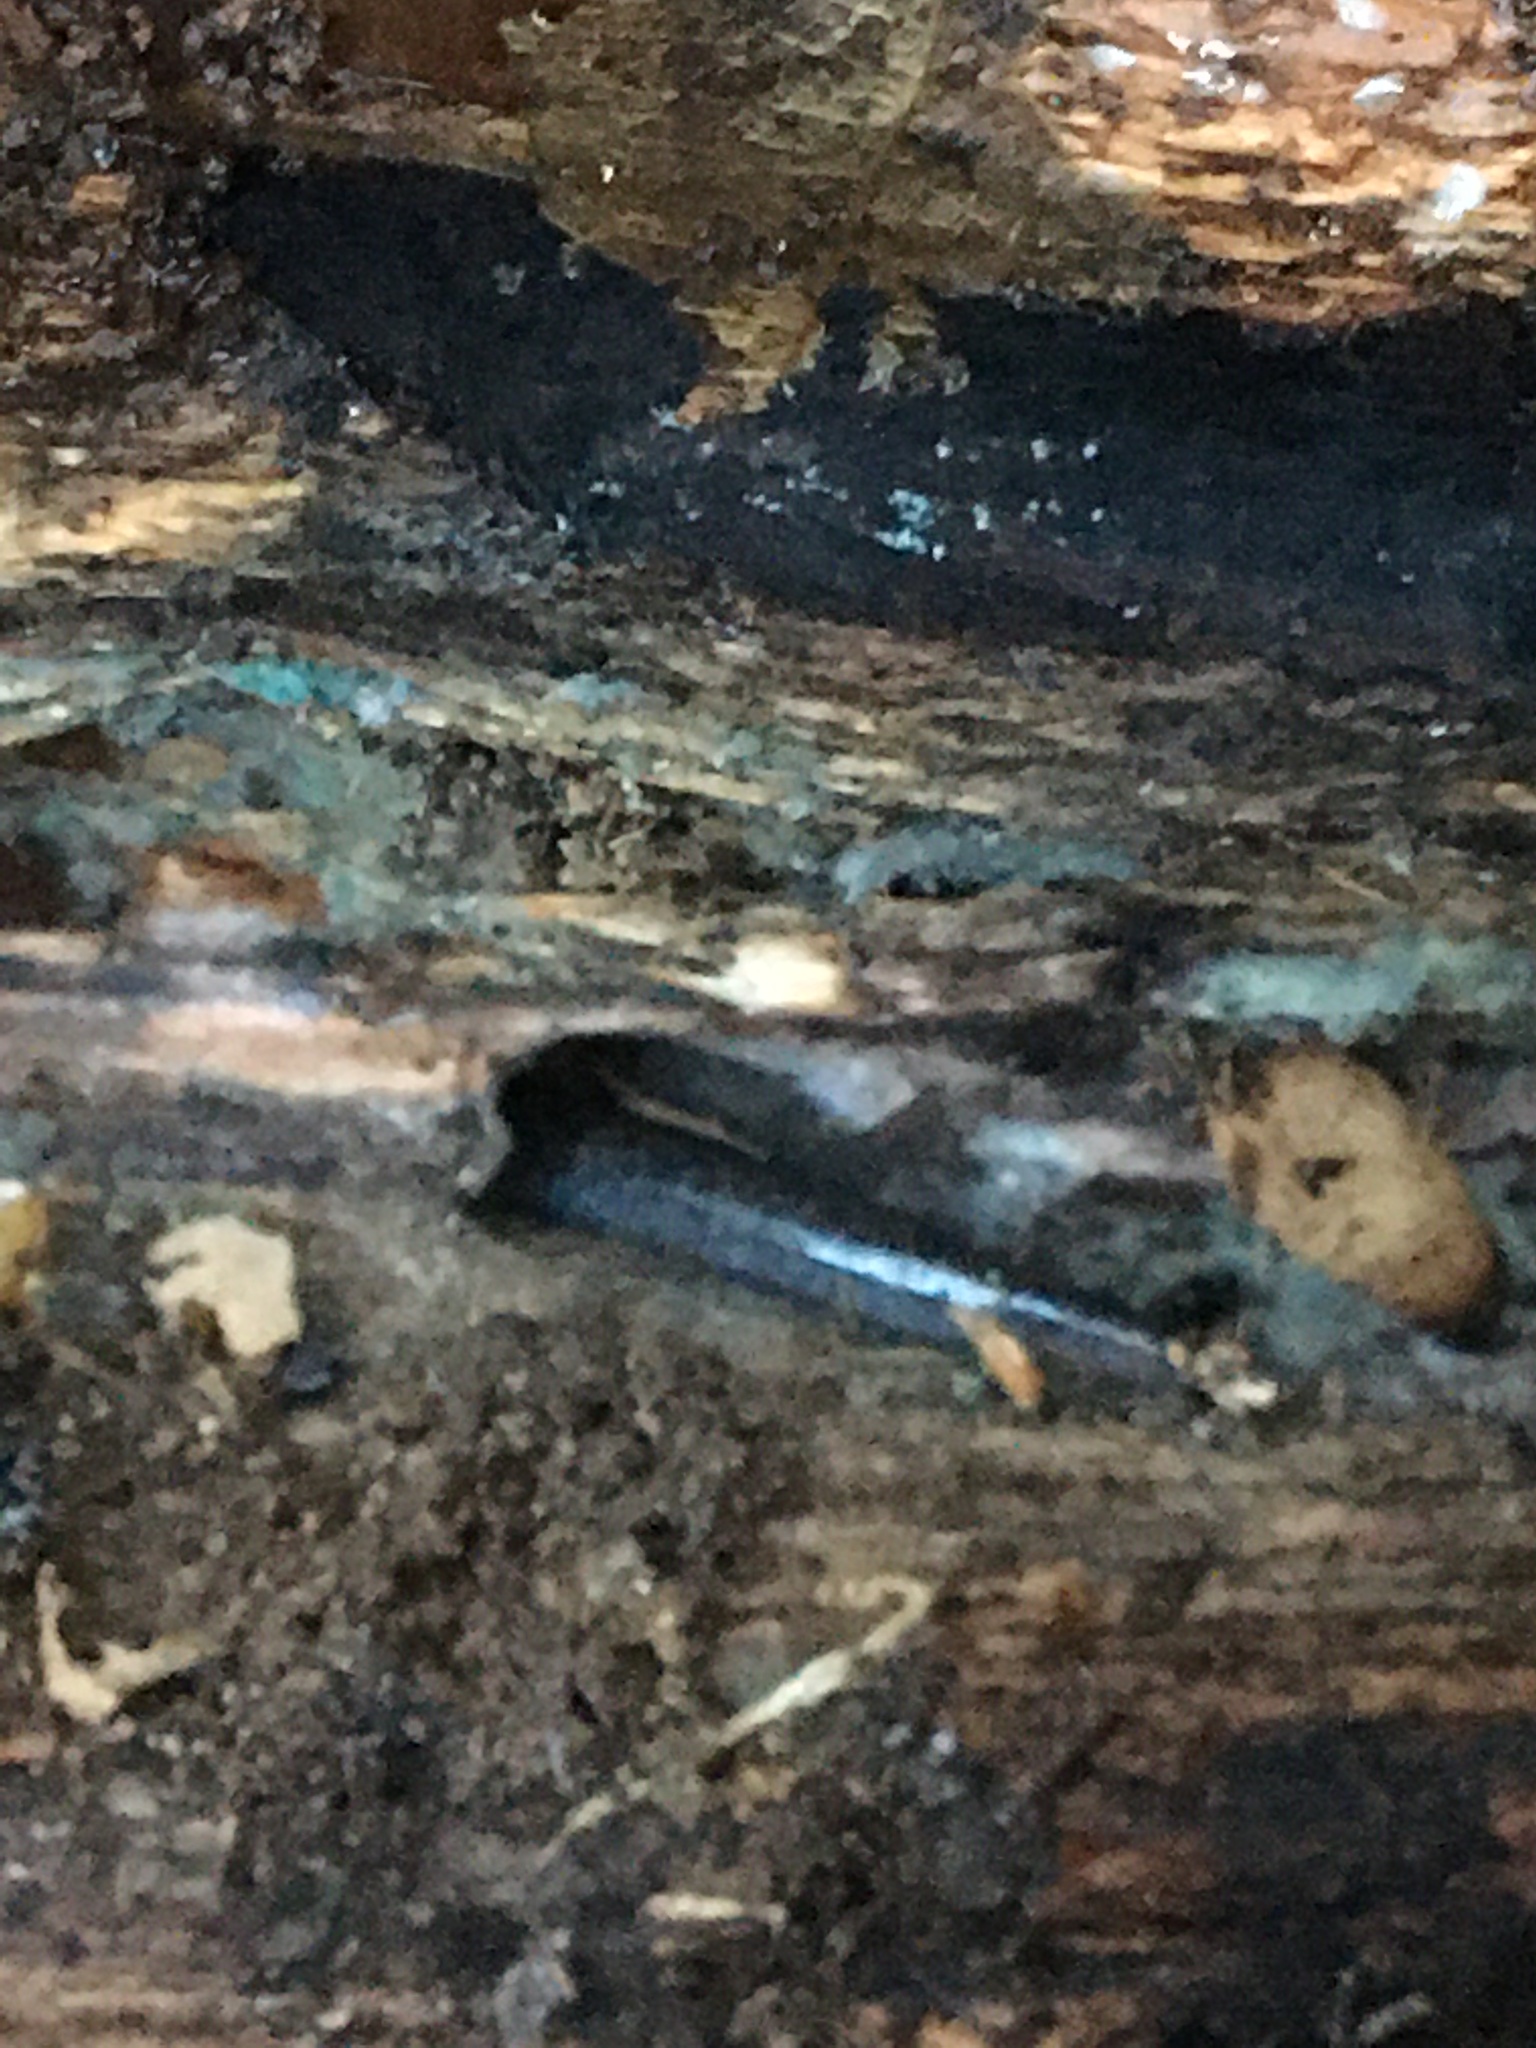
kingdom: Animalia
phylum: Chordata
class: Amphibia
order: Caudata
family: Plethodontidae
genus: Plethodon
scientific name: Plethodon cinereus
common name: Redback salamander
